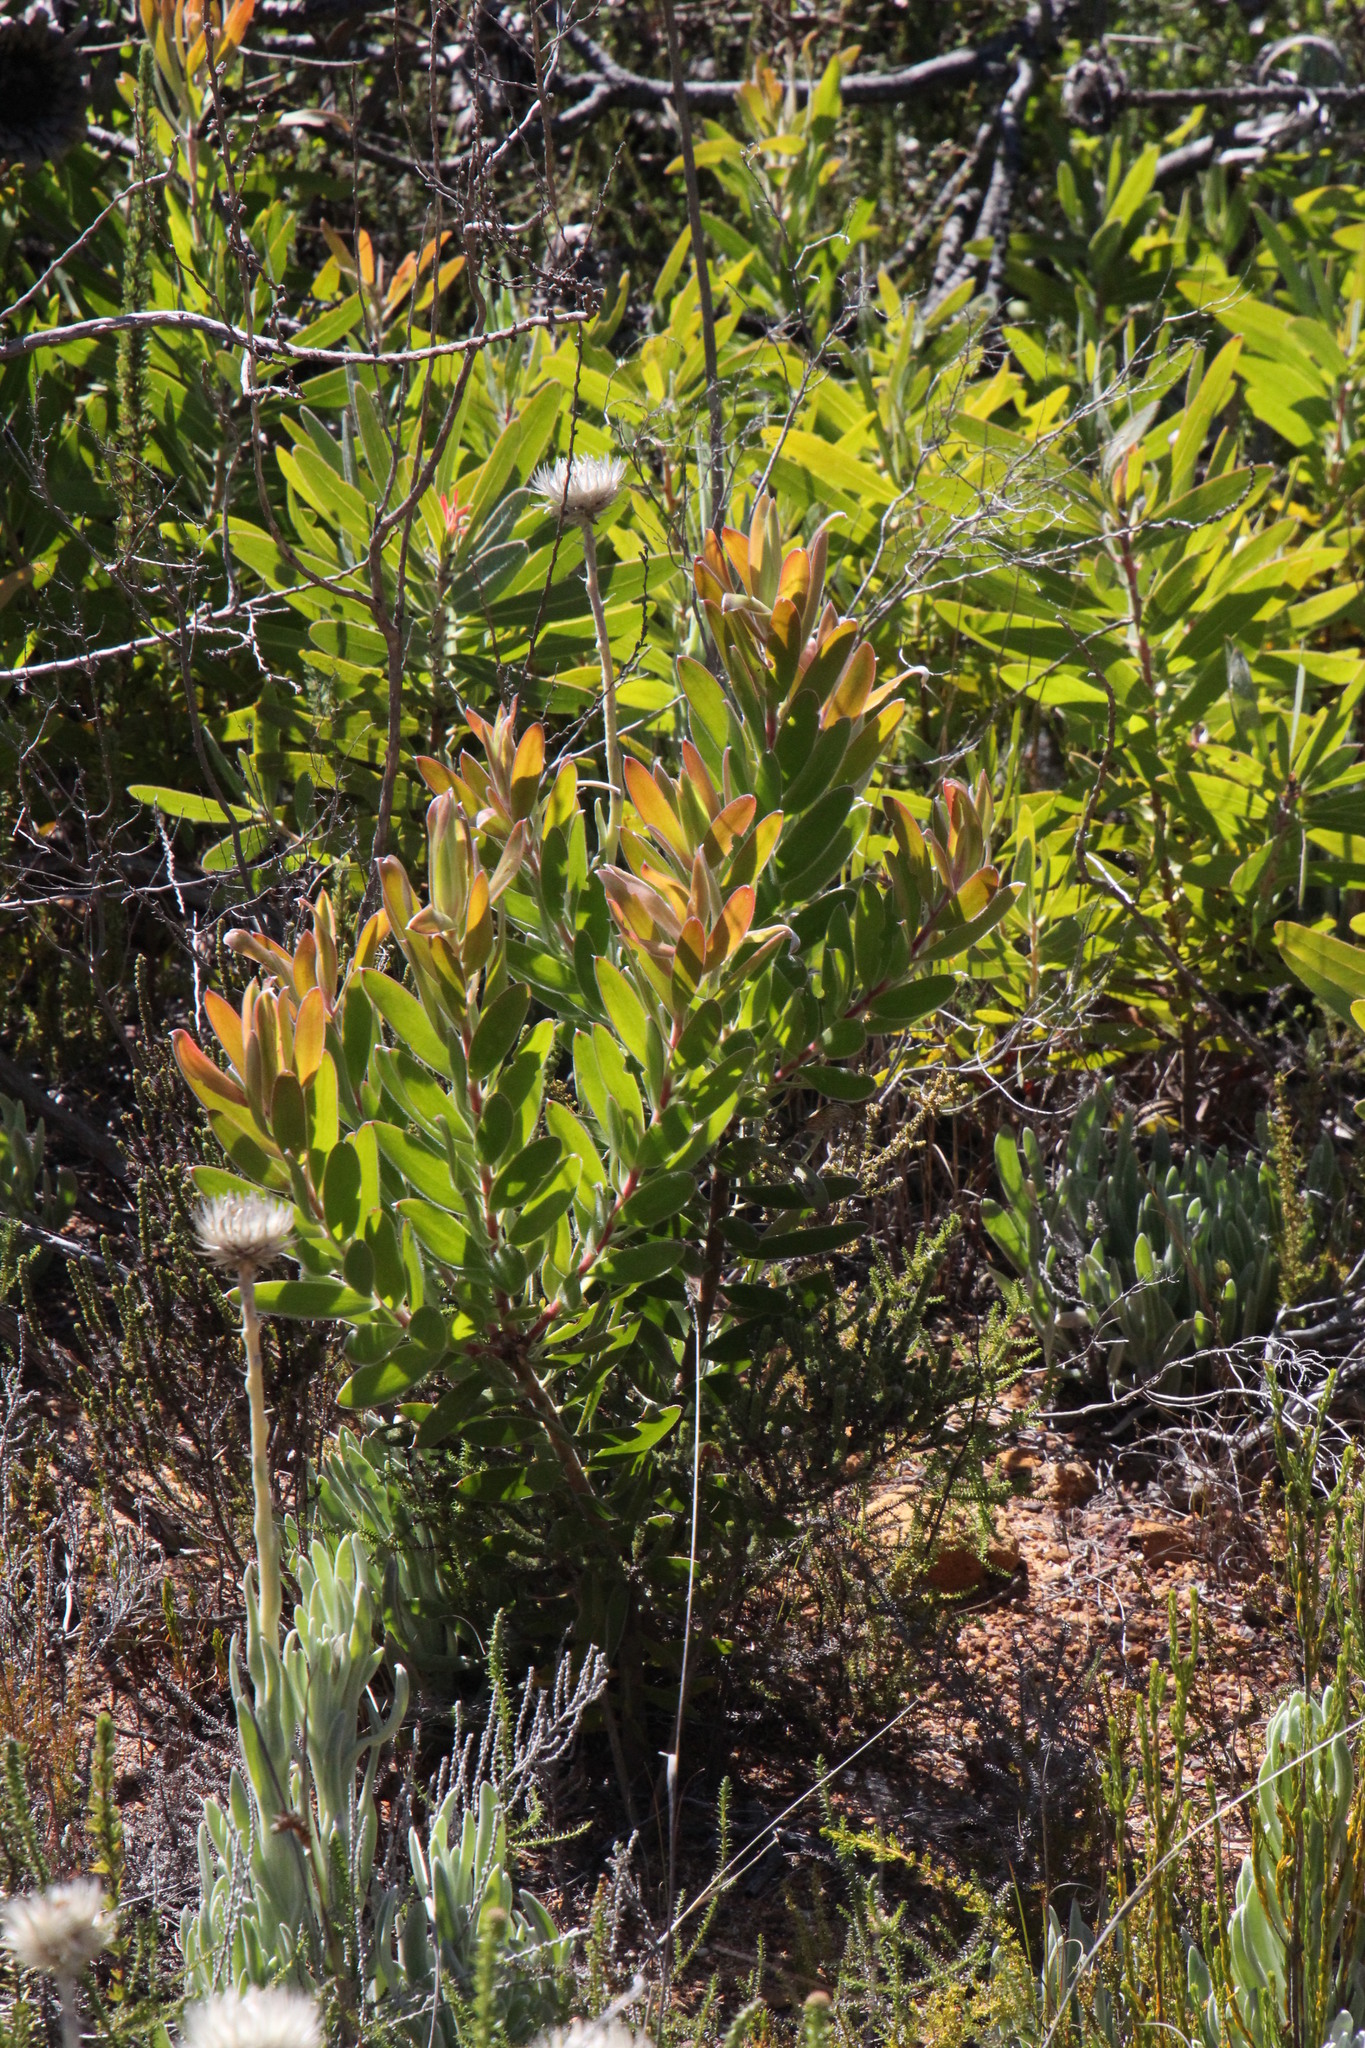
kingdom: Plantae
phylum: Tracheophyta
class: Magnoliopsida
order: Proteales
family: Proteaceae
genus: Protea
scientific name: Protea coronata
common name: Green sugarbush
